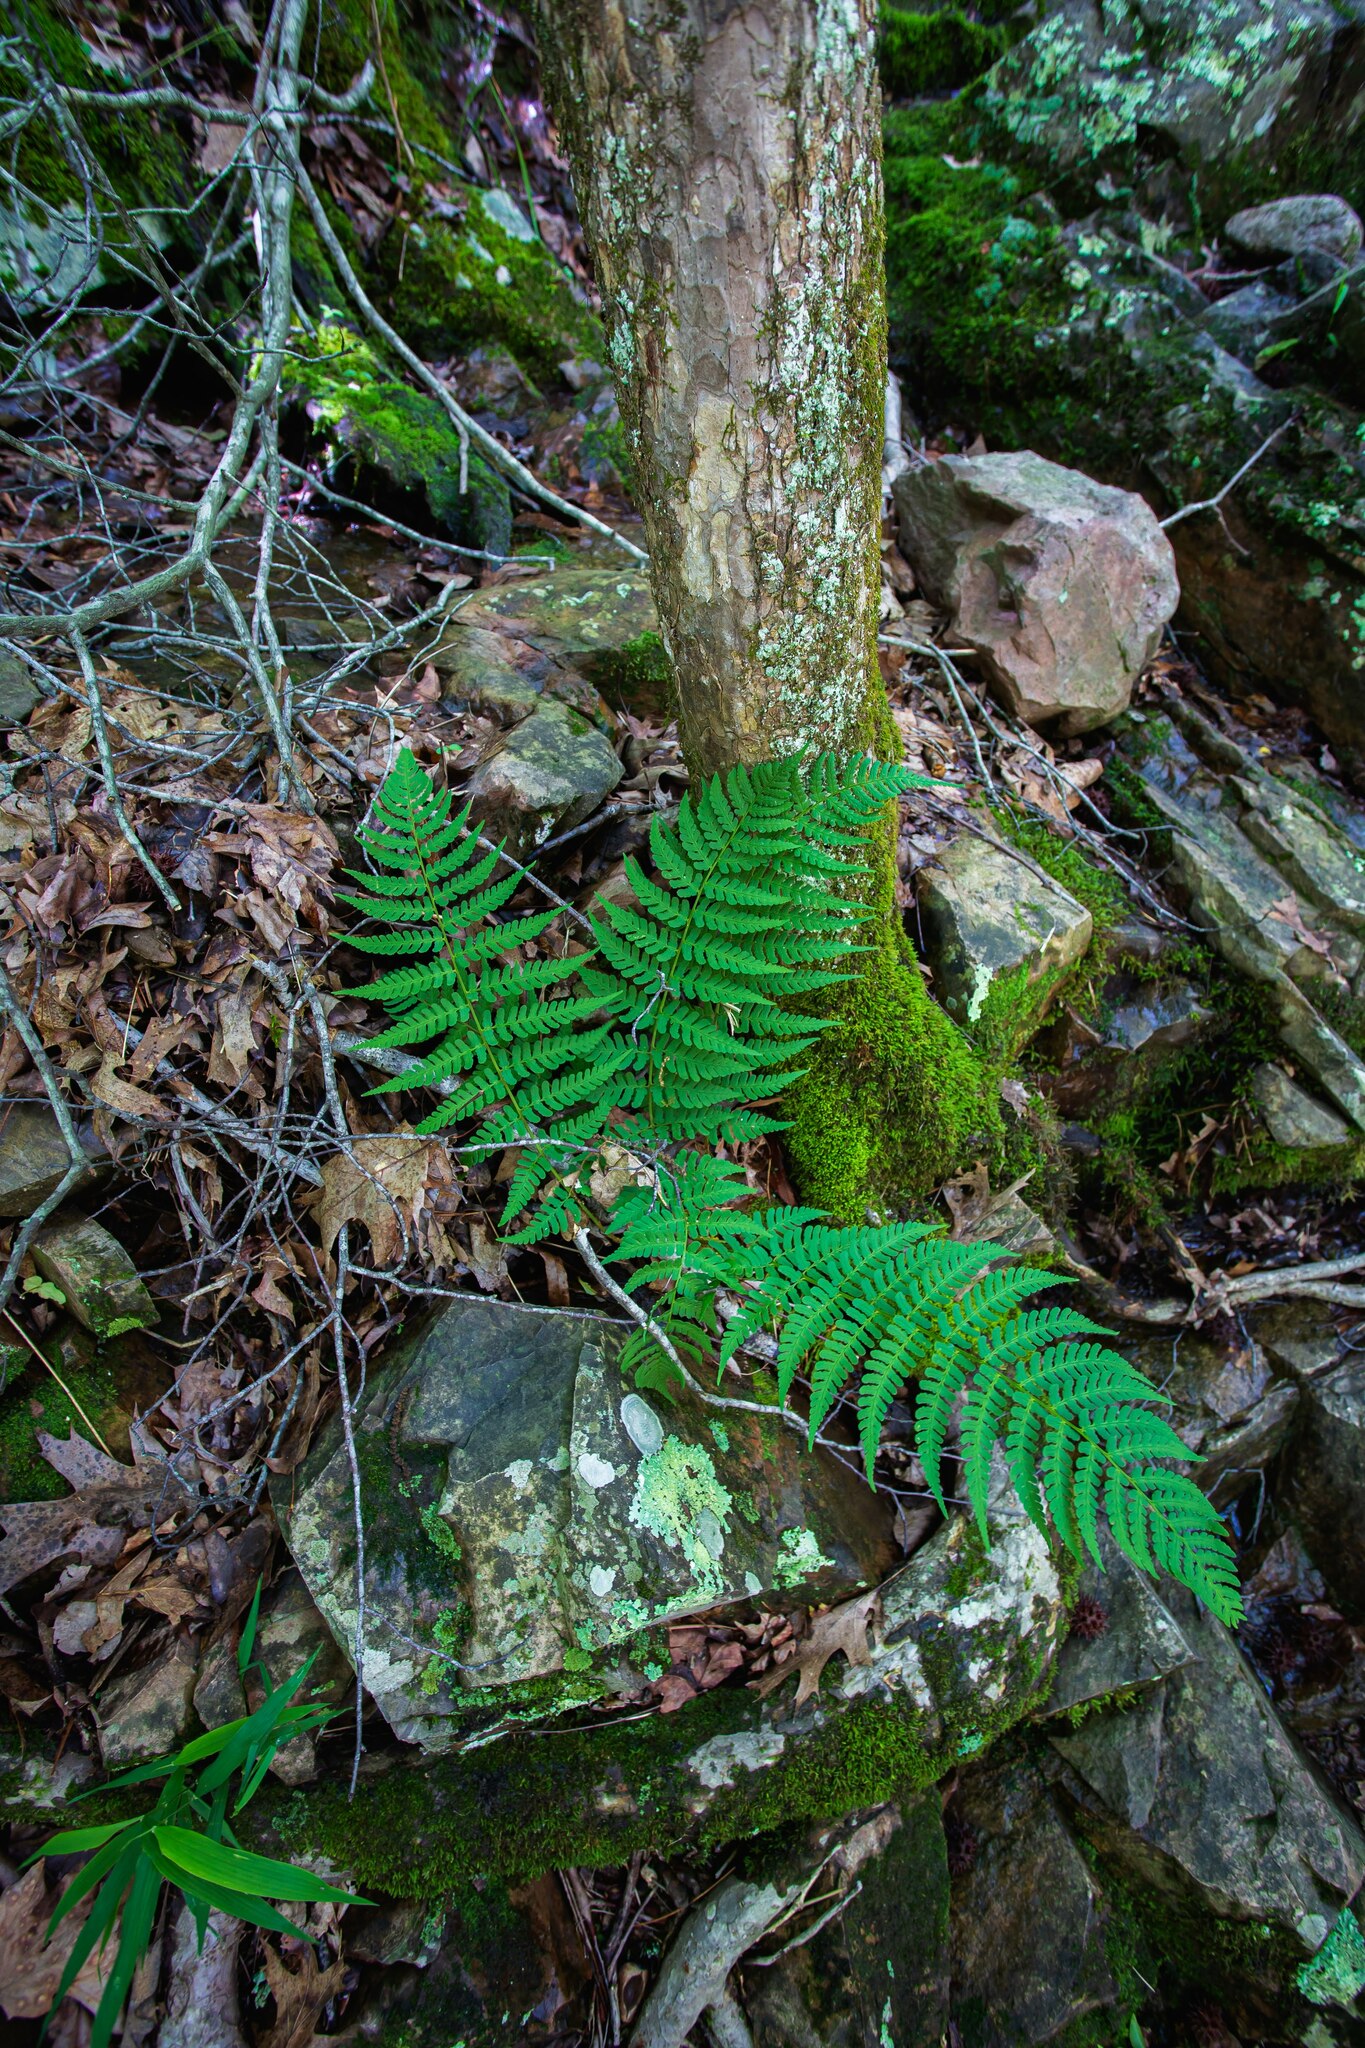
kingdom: Plantae
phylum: Tracheophyta
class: Polypodiopsida
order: Polypodiales
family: Dryopteridaceae
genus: Dryopteris
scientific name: Dryopteris marginalis
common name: Marginal wood fern
